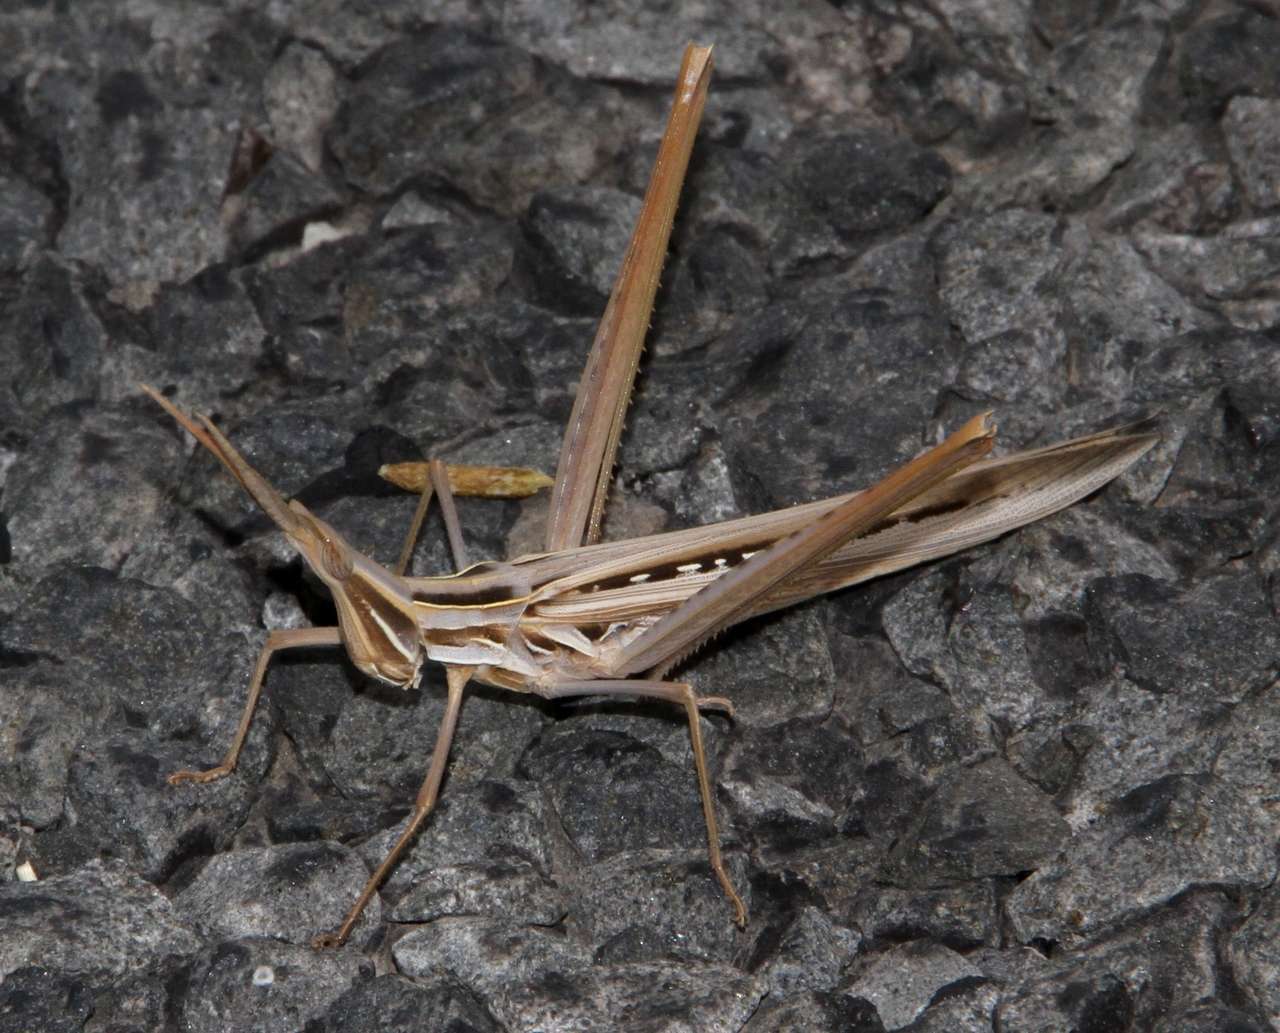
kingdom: Animalia
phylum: Arthropoda
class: Insecta
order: Orthoptera
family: Acrididae
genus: Acrida
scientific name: Acrida conica
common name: Giant green slantface
